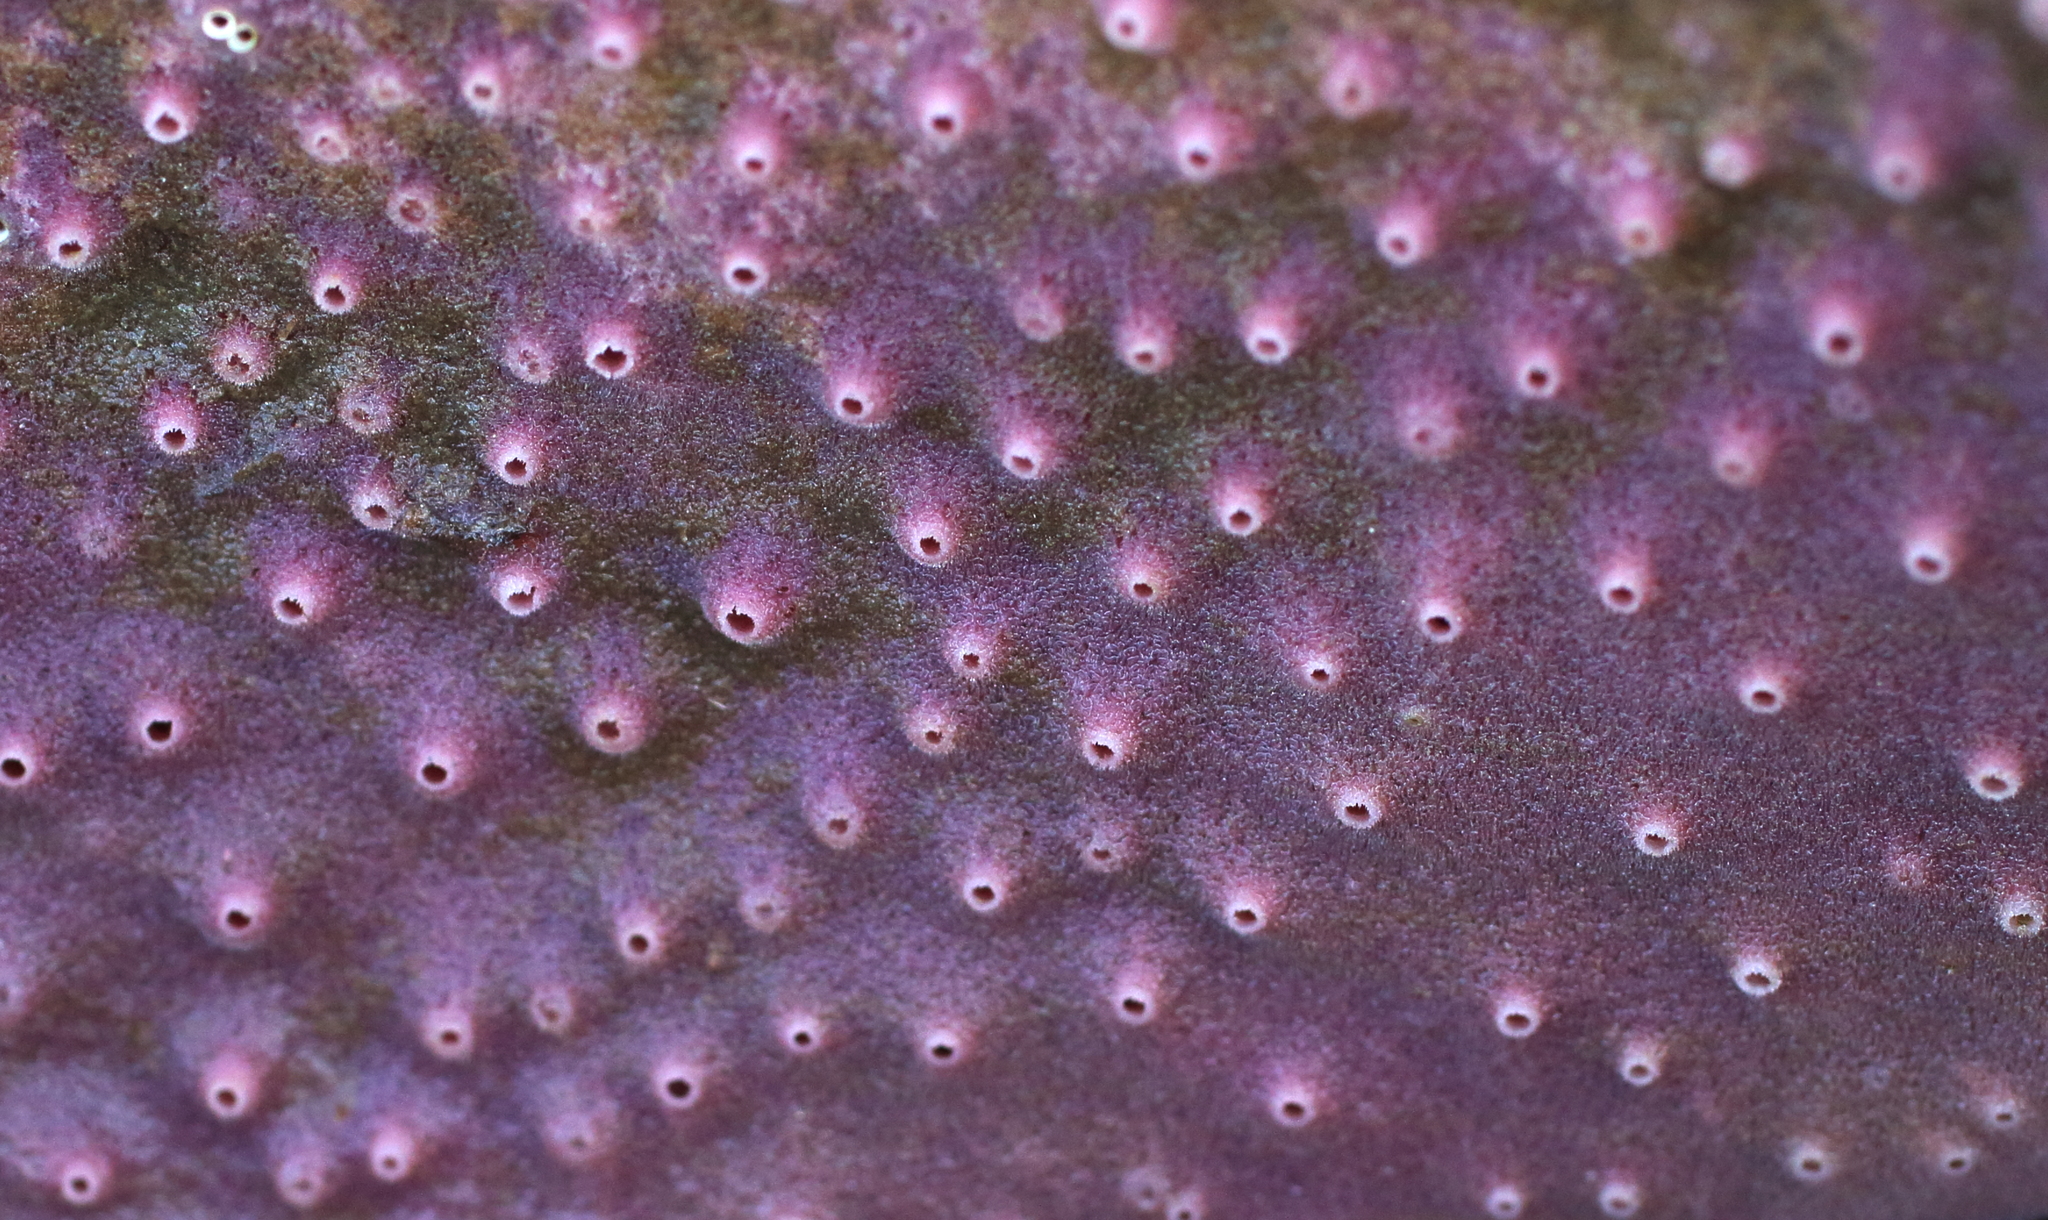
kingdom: Animalia
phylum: Porifera
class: Demospongiae
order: Haplosclerida
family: Chalinidae
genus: Haliclona
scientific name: Haliclona cinerea
